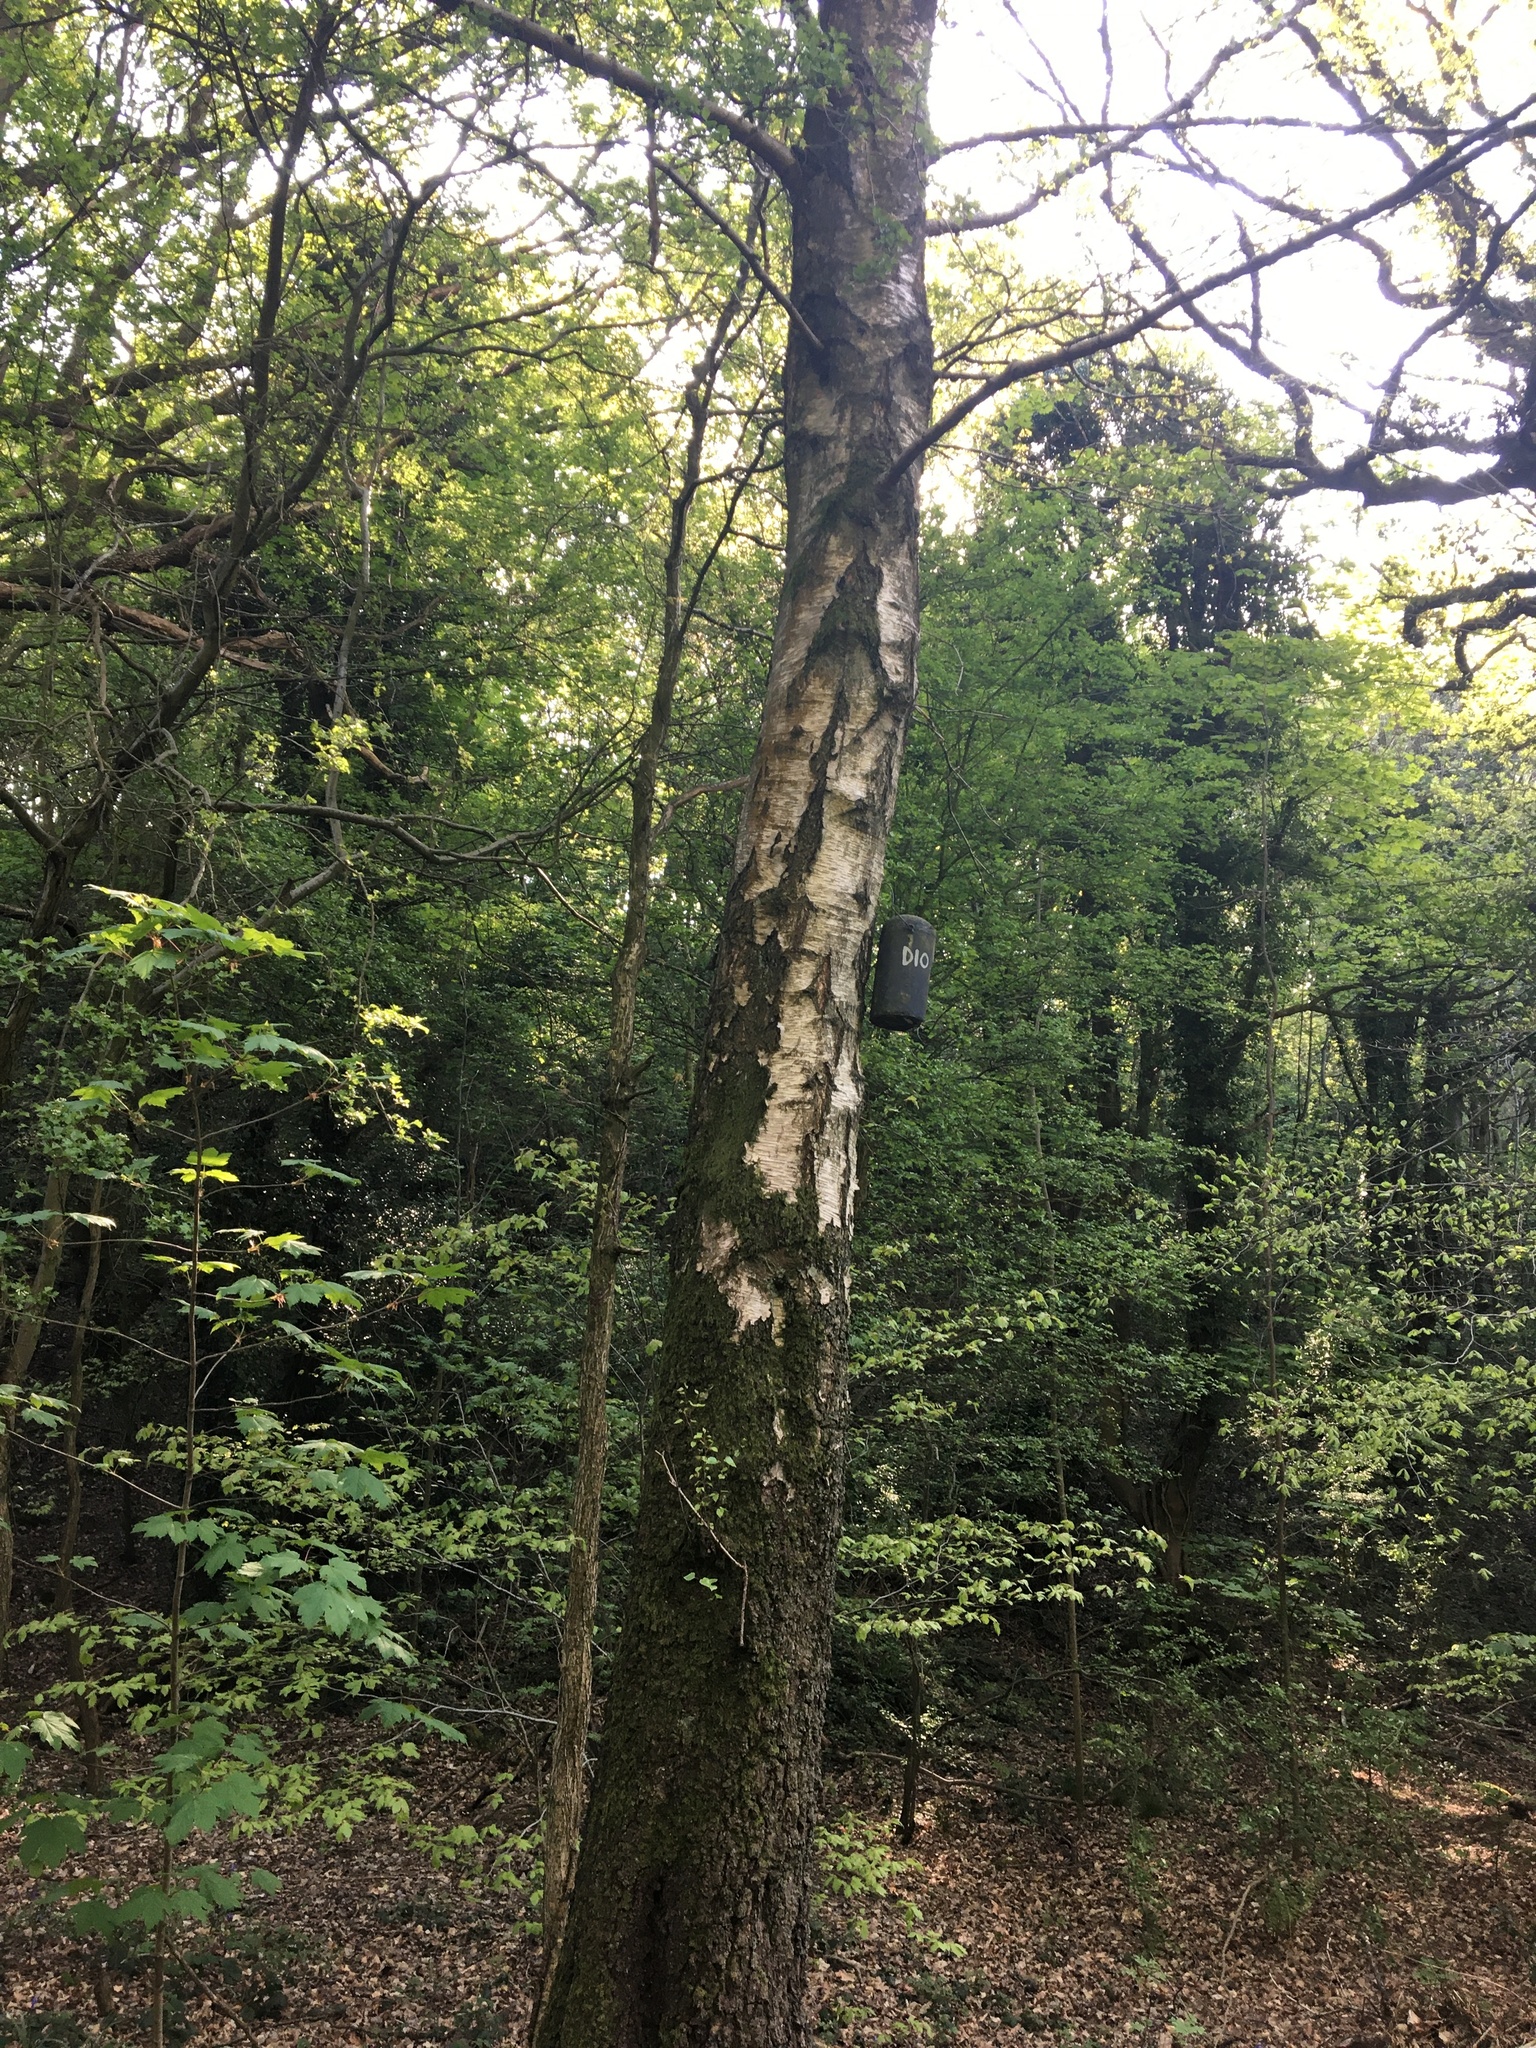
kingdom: Plantae
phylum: Tracheophyta
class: Magnoliopsida
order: Fagales
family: Betulaceae
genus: Betula
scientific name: Betula pendula
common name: Silver birch
